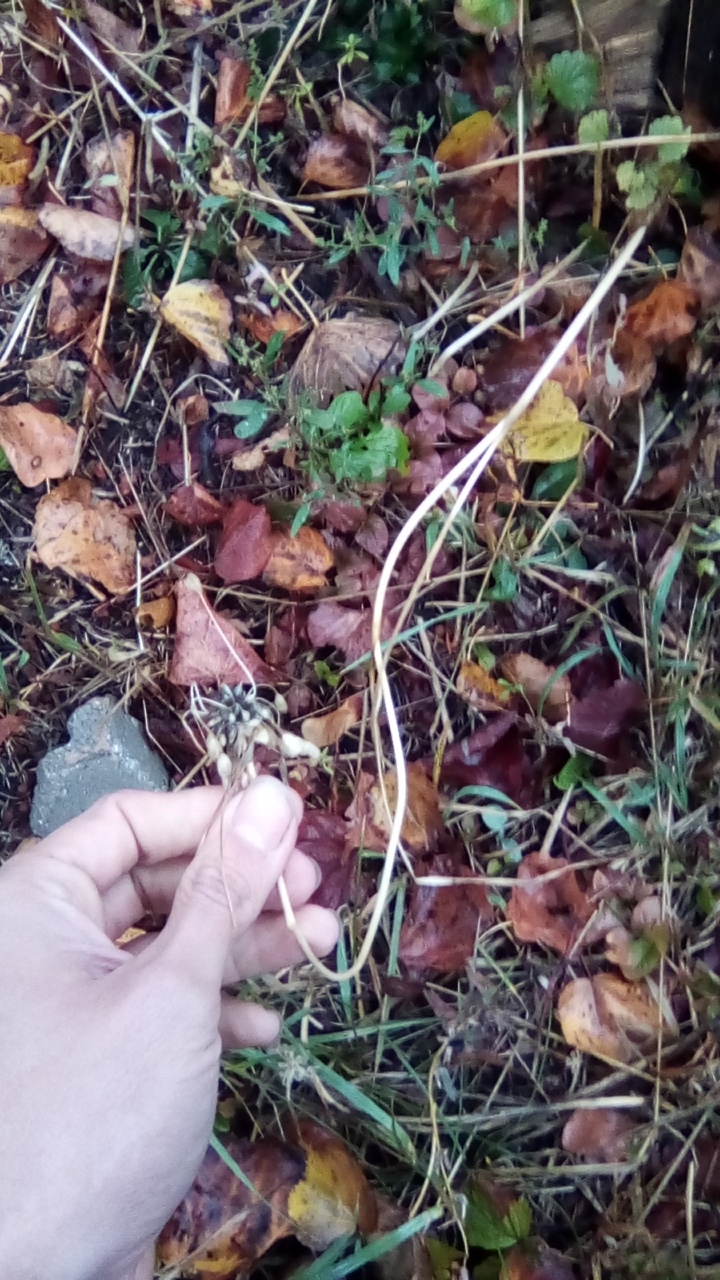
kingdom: Plantae
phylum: Tracheophyta
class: Liliopsida
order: Asparagales
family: Amaryllidaceae
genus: Allium
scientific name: Allium oleraceum
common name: Field garlic
